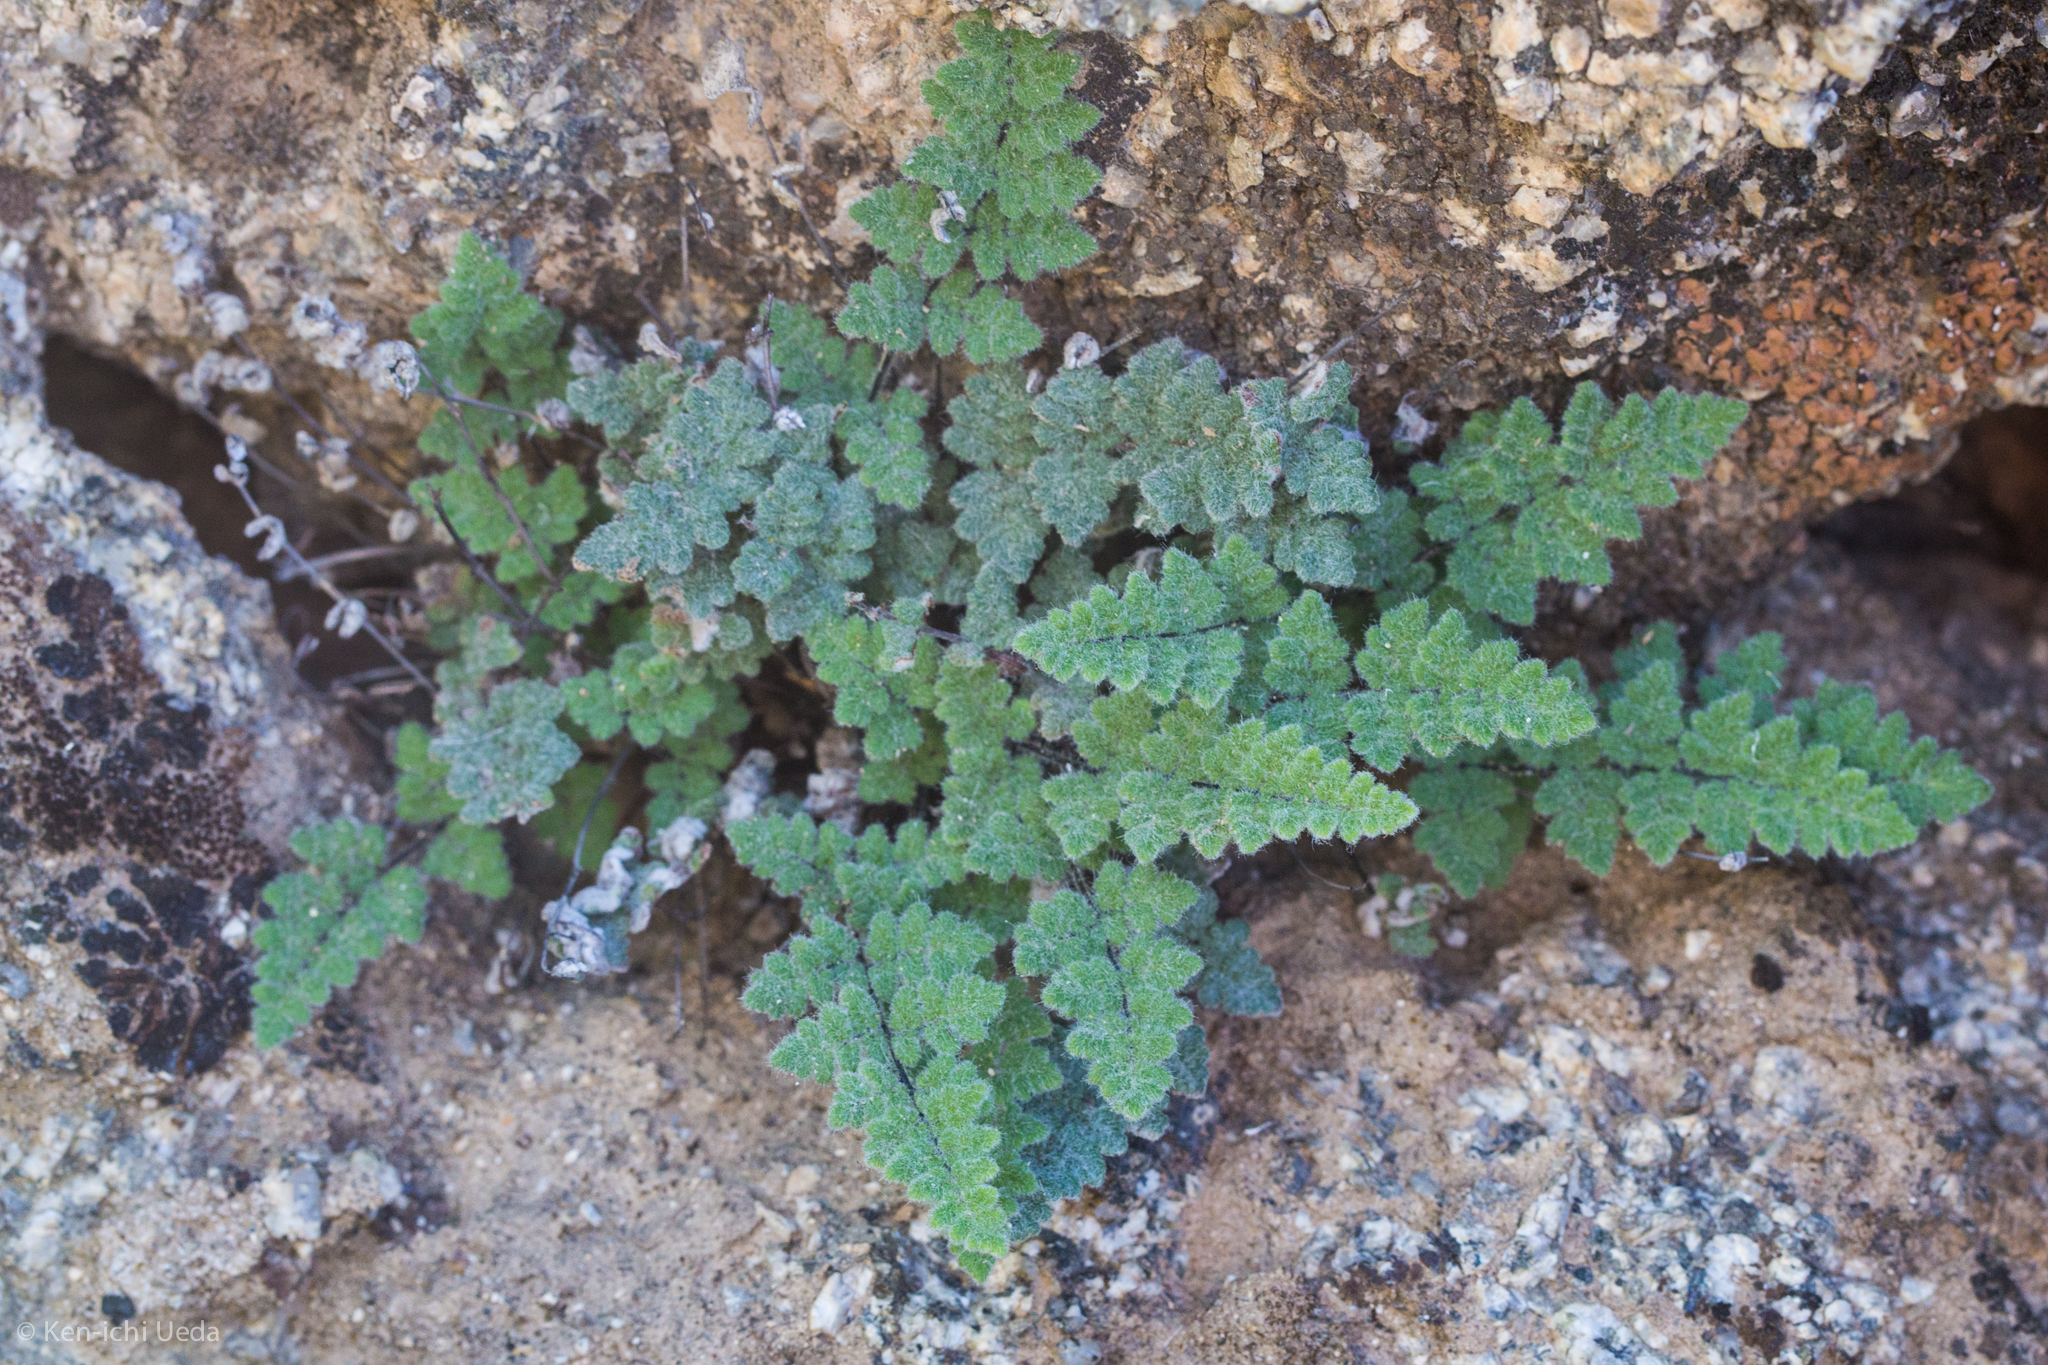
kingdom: Plantae
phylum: Tracheophyta
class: Polypodiopsida
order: Polypodiales
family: Pteridaceae
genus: Myriopteris
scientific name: Myriopteris parryi
